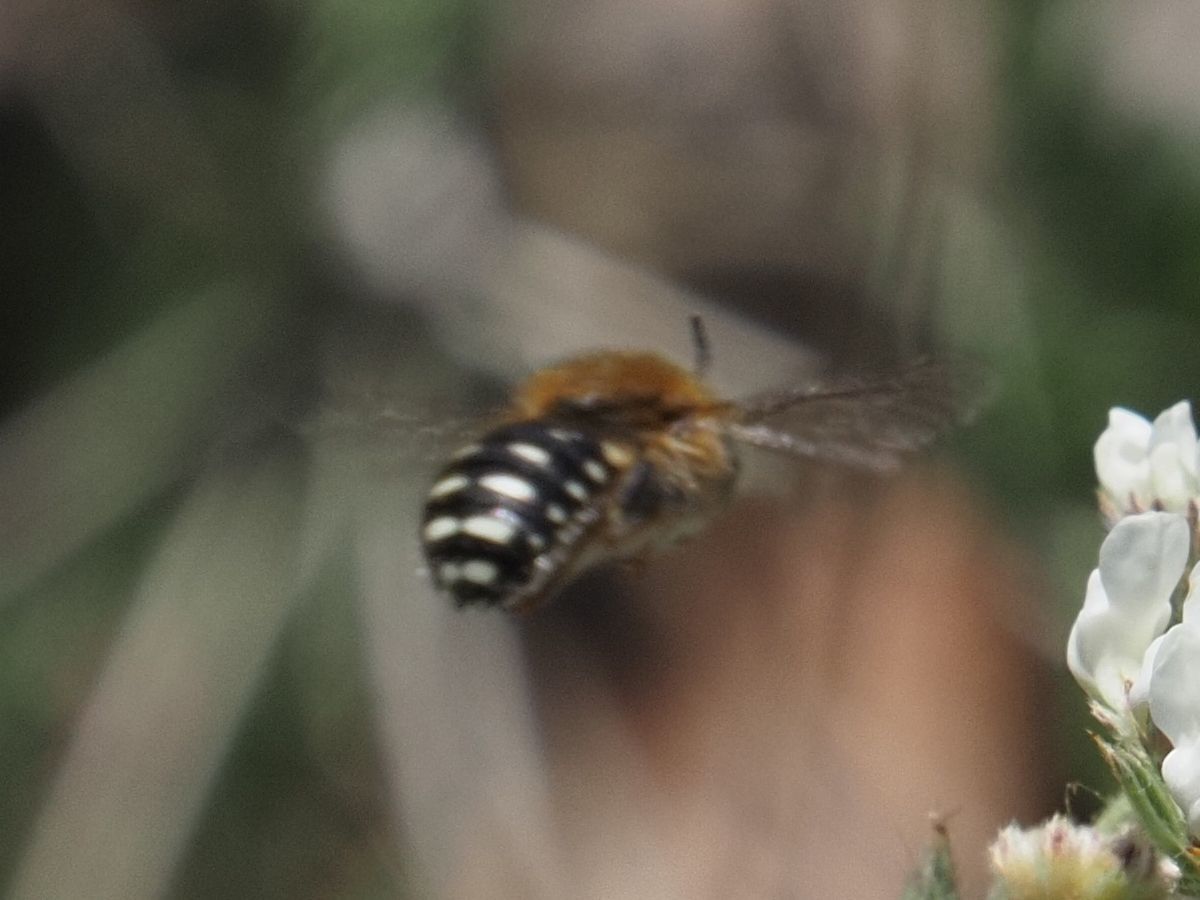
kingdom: Animalia
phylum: Arthropoda
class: Insecta
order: Hymenoptera
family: Megachilidae
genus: Anthidium
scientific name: Anthidium punctatum
